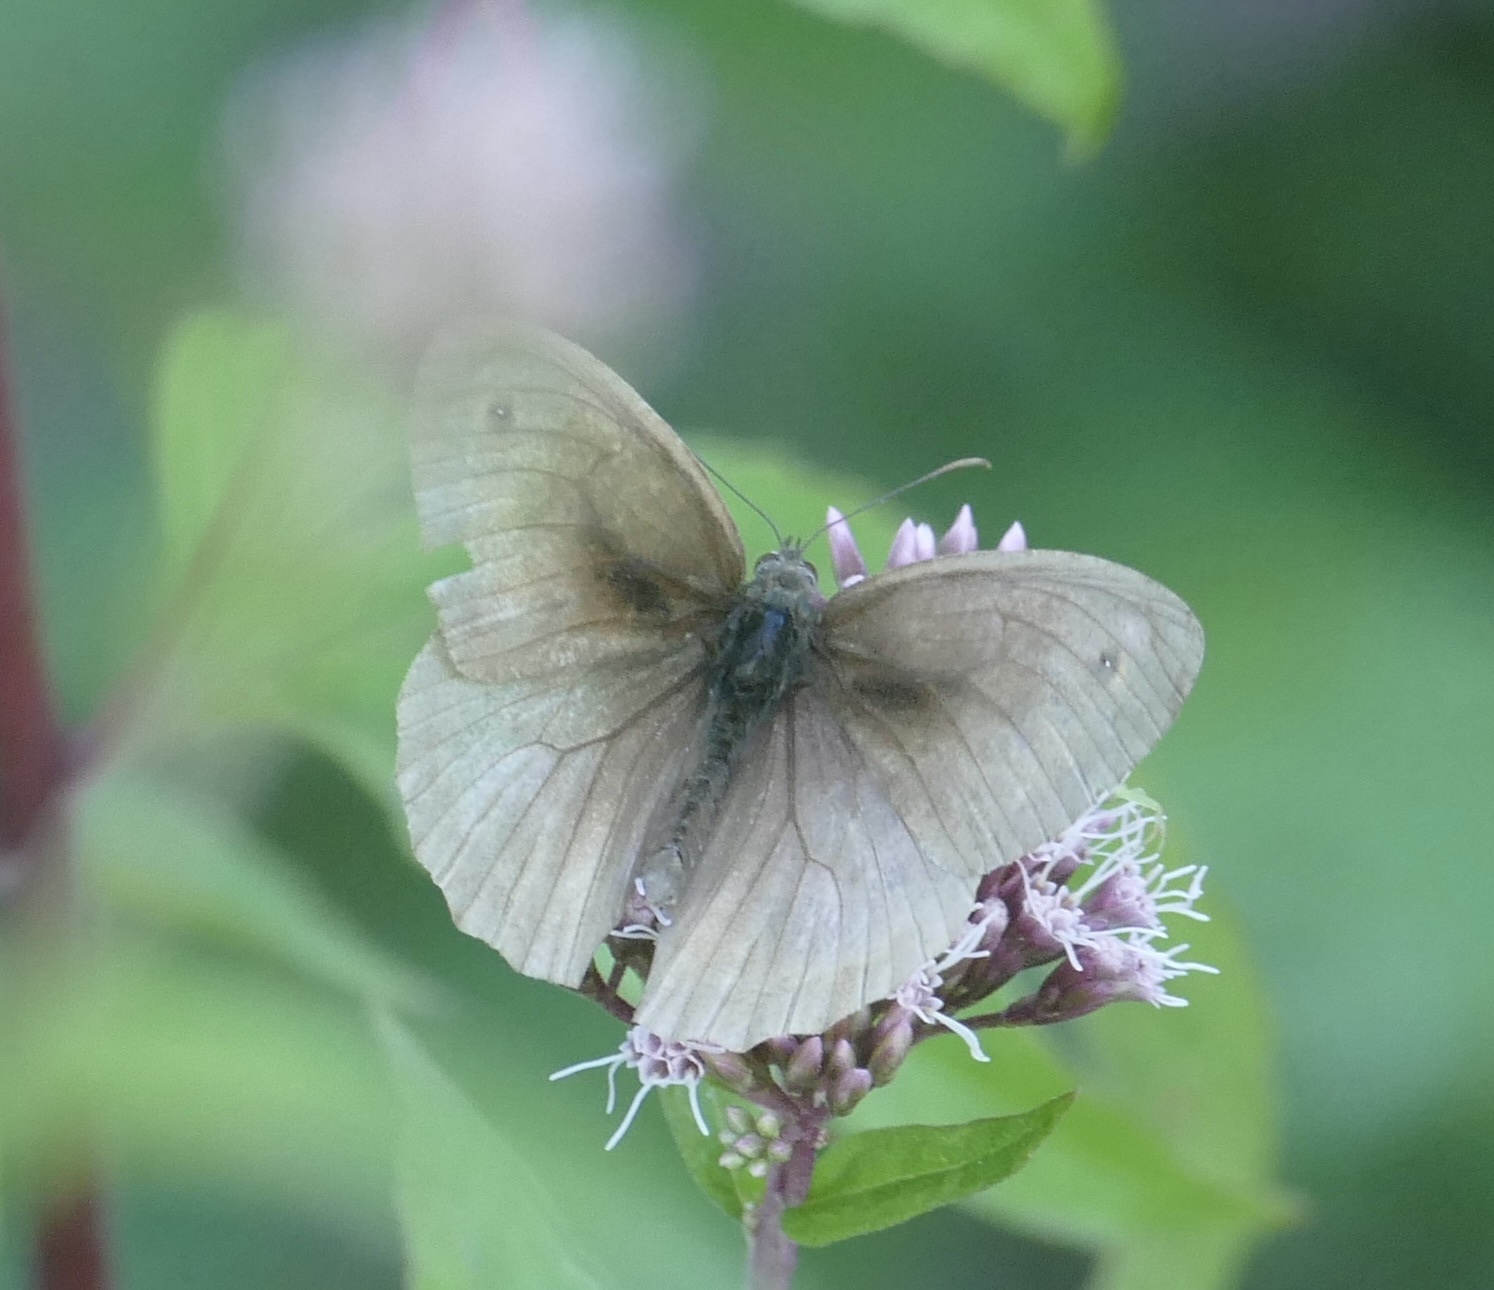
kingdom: Animalia
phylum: Arthropoda
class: Insecta
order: Lepidoptera
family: Nymphalidae
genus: Maniola
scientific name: Maniola jurtina
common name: Meadow brown
